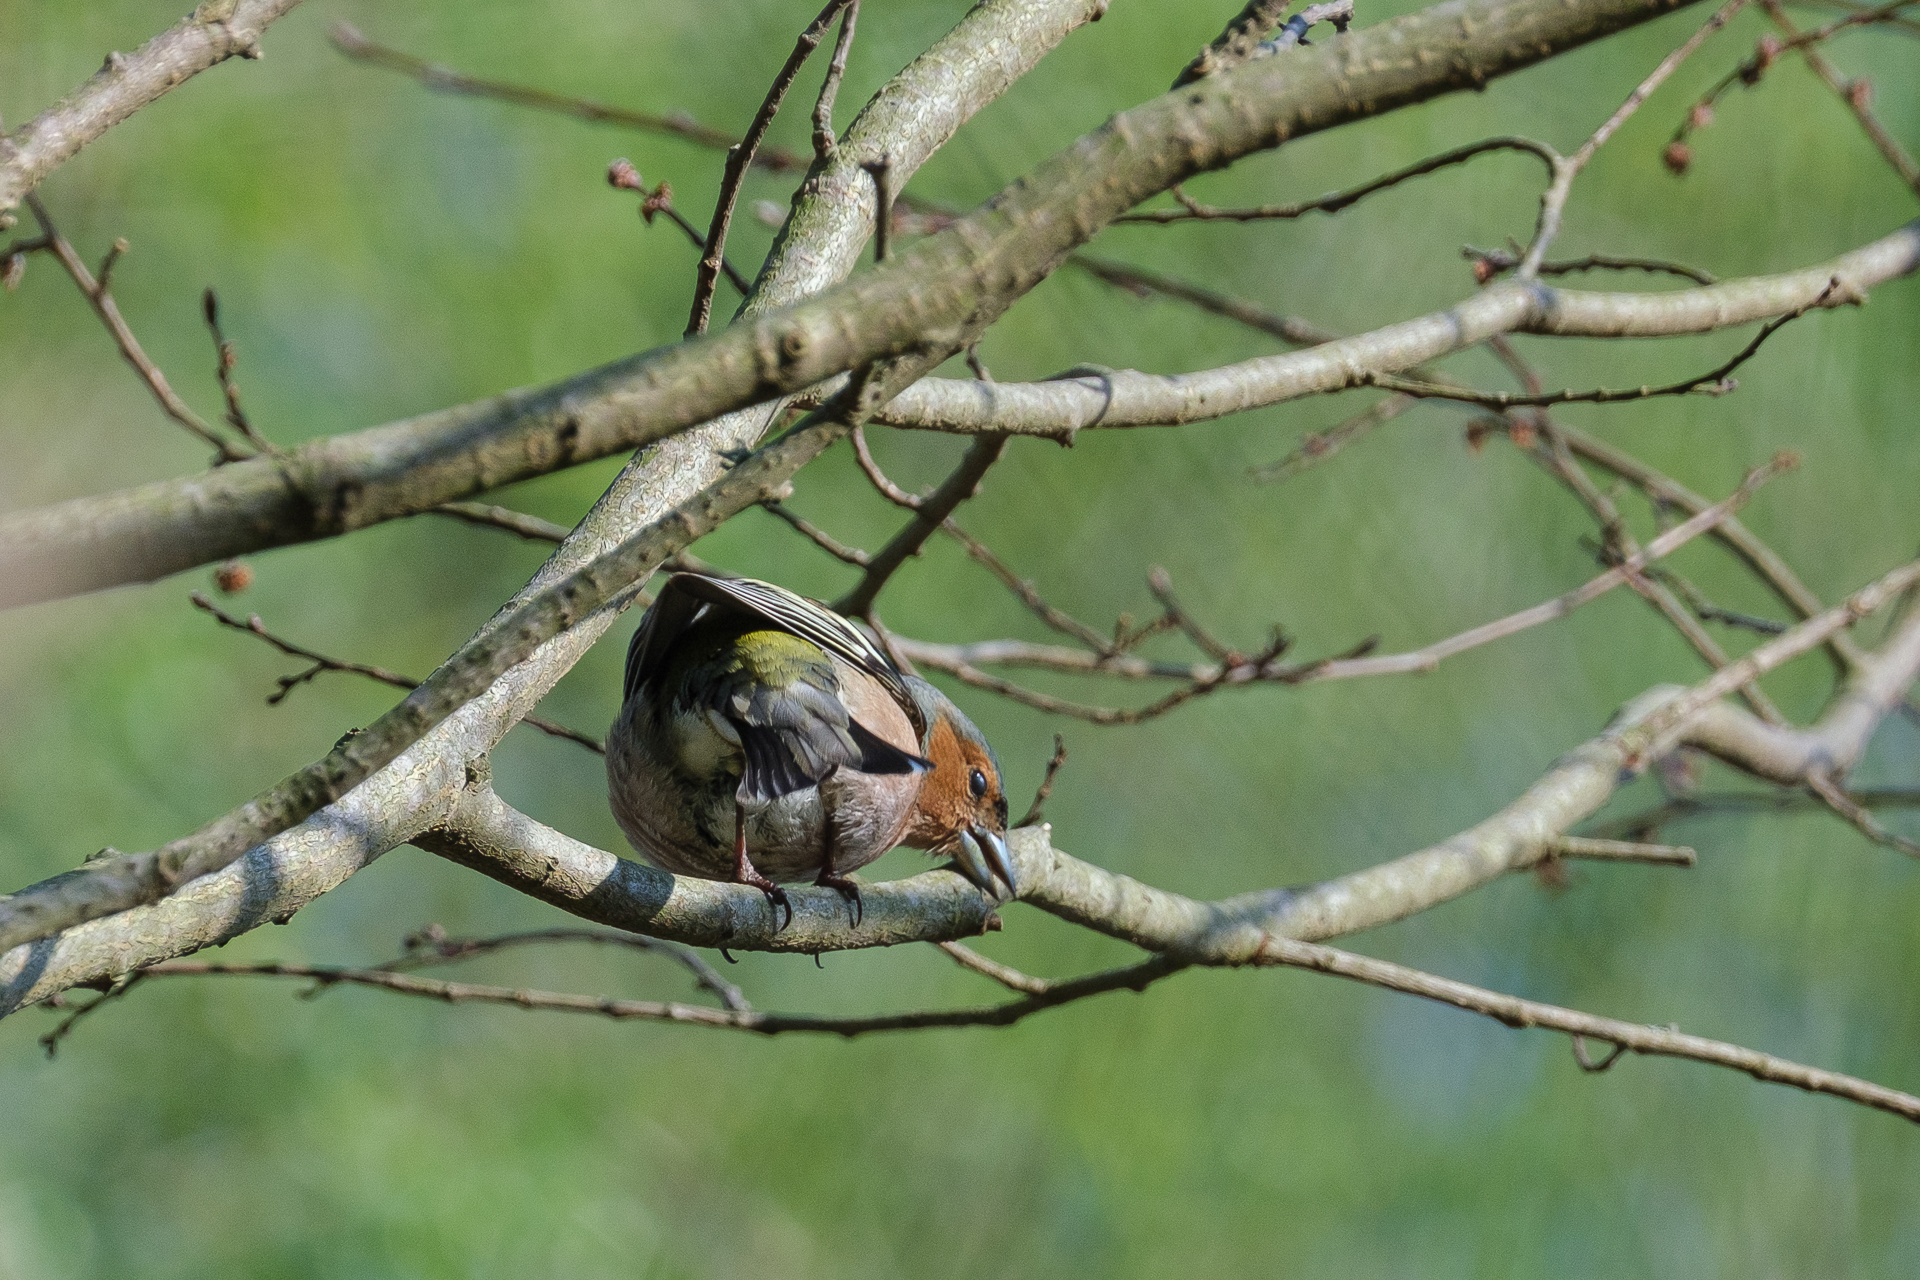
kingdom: Animalia
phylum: Chordata
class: Aves
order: Passeriformes
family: Fringillidae
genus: Fringilla
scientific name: Fringilla coelebs
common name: Common chaffinch
